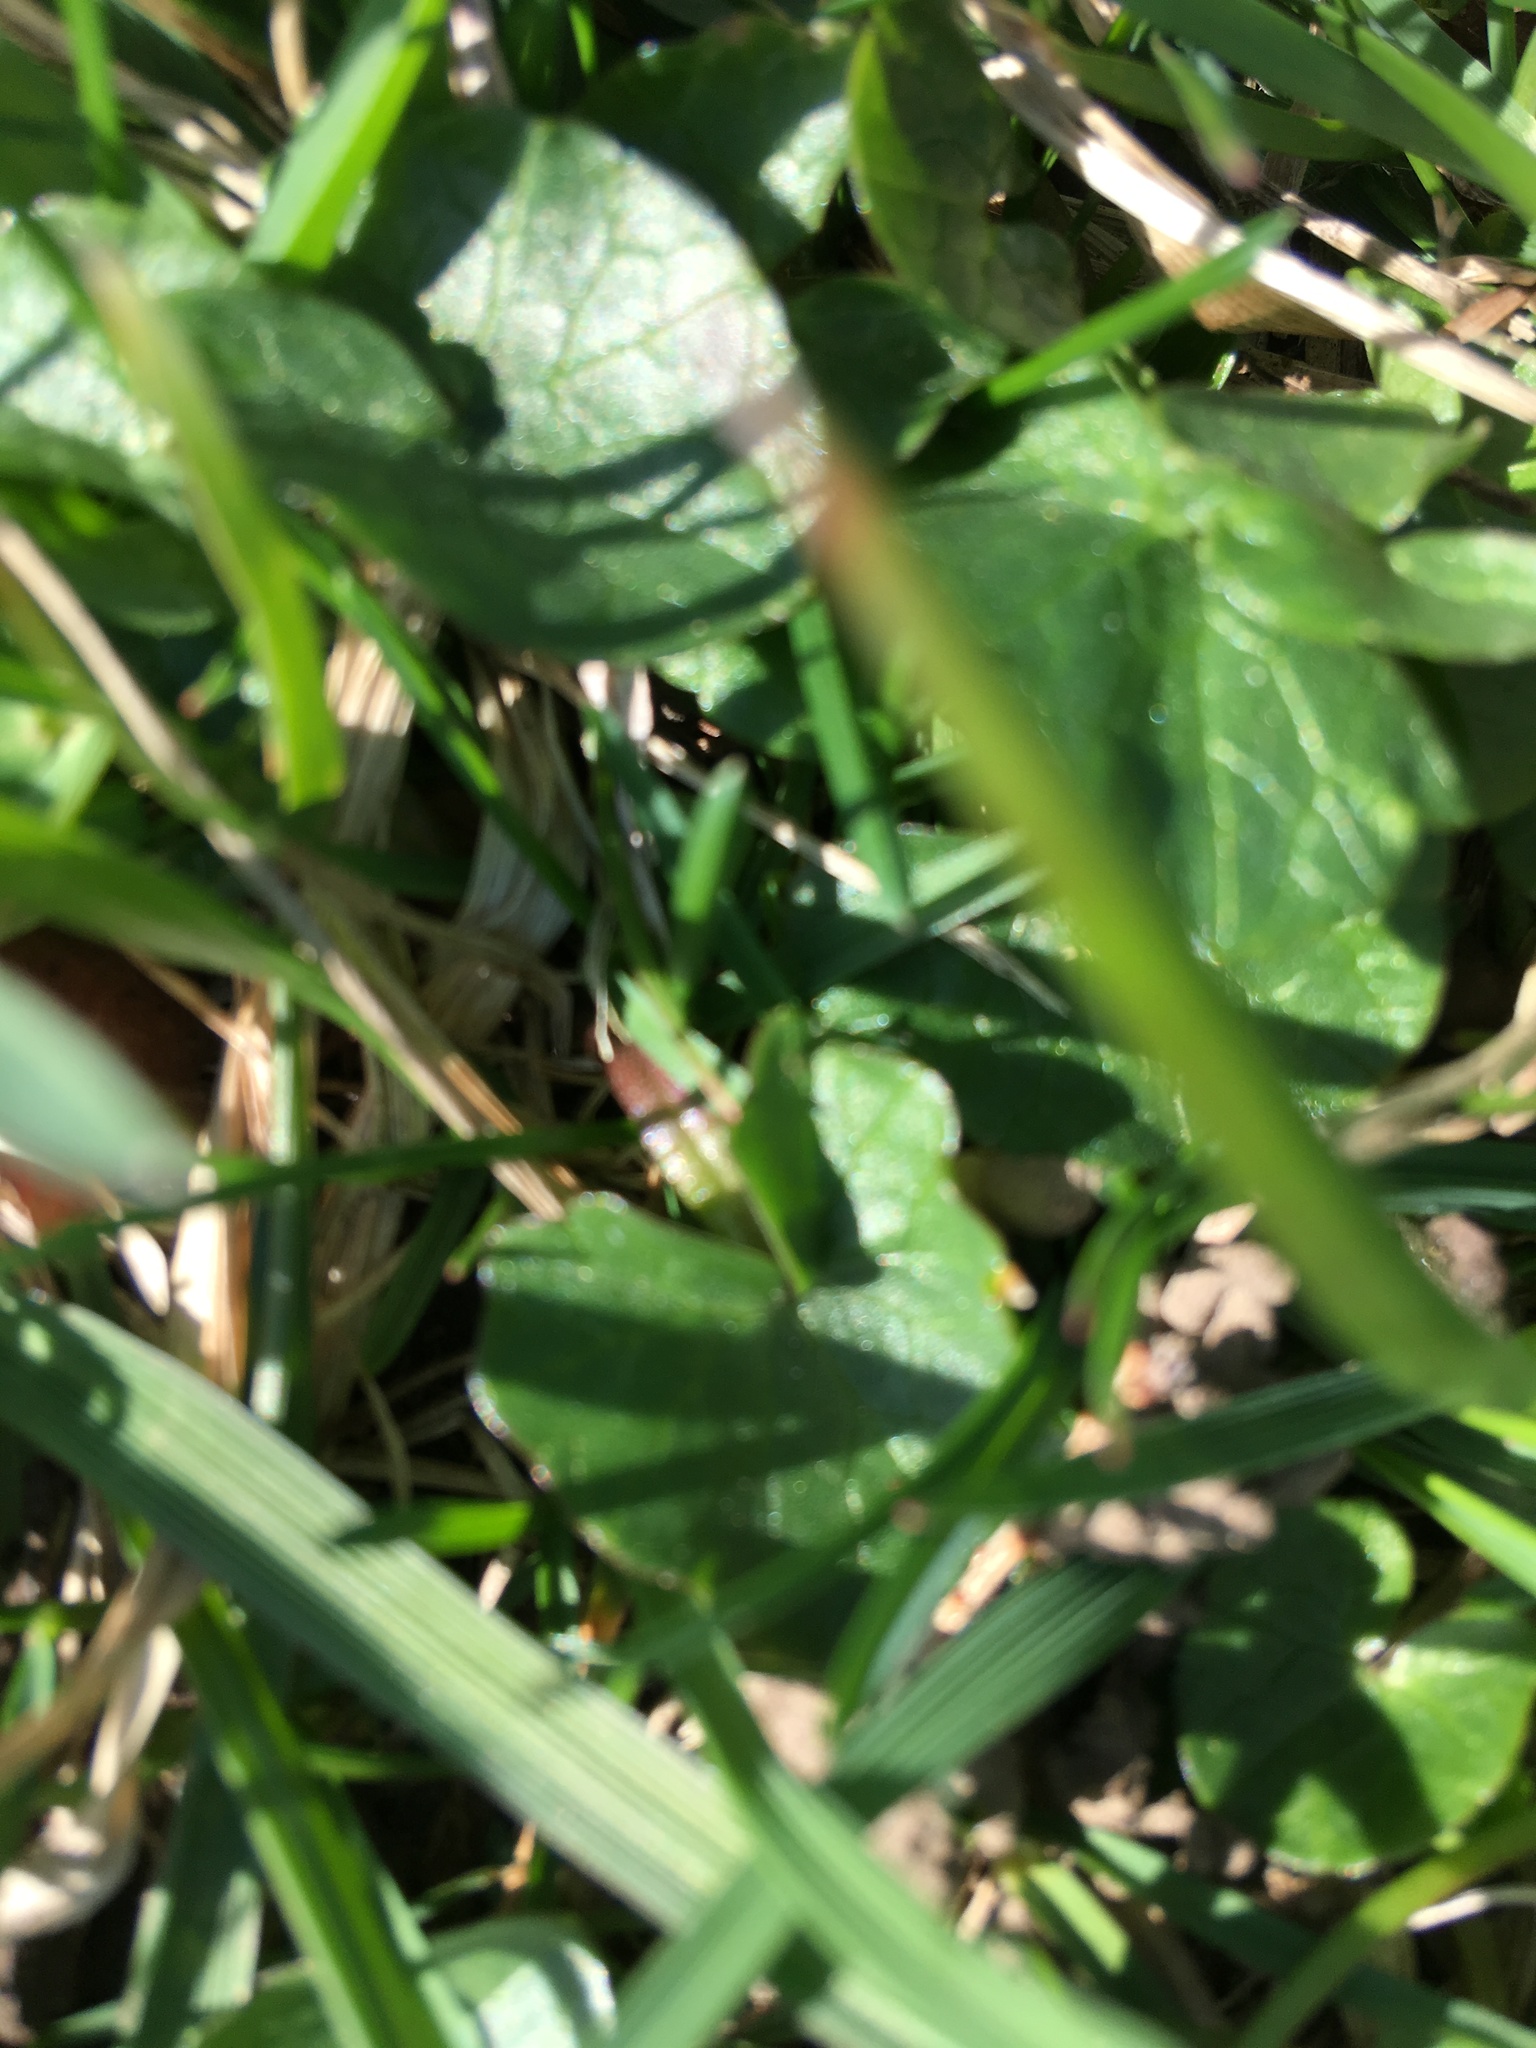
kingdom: Plantae
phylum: Tracheophyta
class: Magnoliopsida
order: Ranunculales
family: Ranunculaceae
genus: Ficaria
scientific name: Ficaria verna
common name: Lesser celandine
